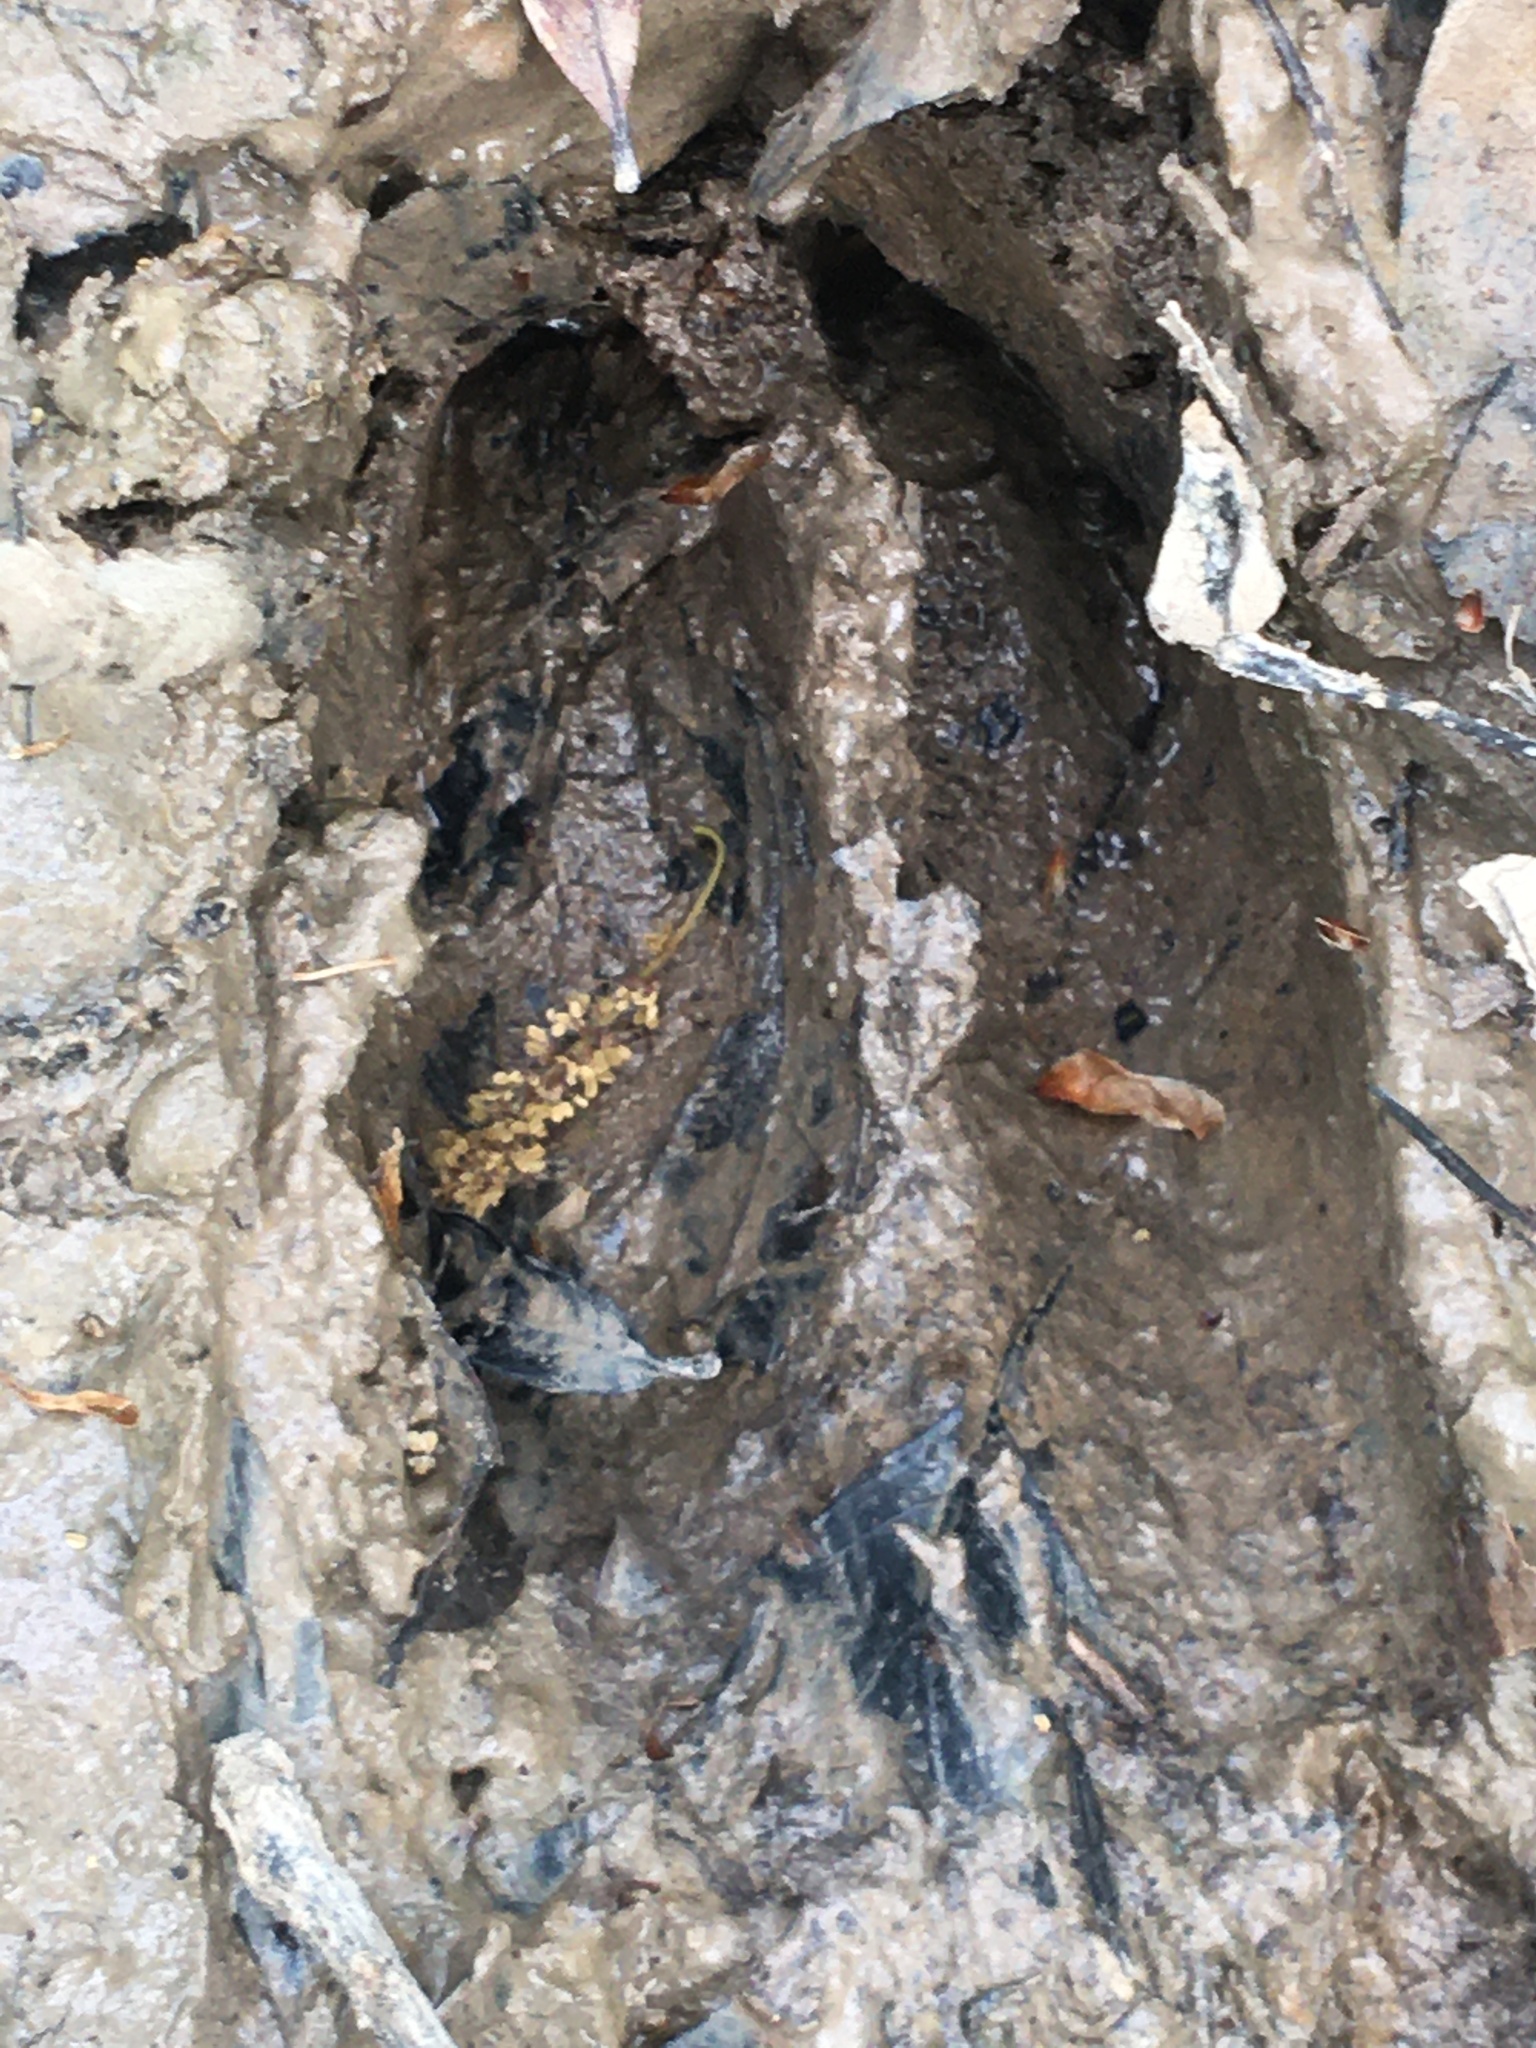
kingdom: Animalia
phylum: Chordata
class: Mammalia
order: Artiodactyla
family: Cervidae
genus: Odocoileus
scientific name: Odocoileus virginianus
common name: White-tailed deer
